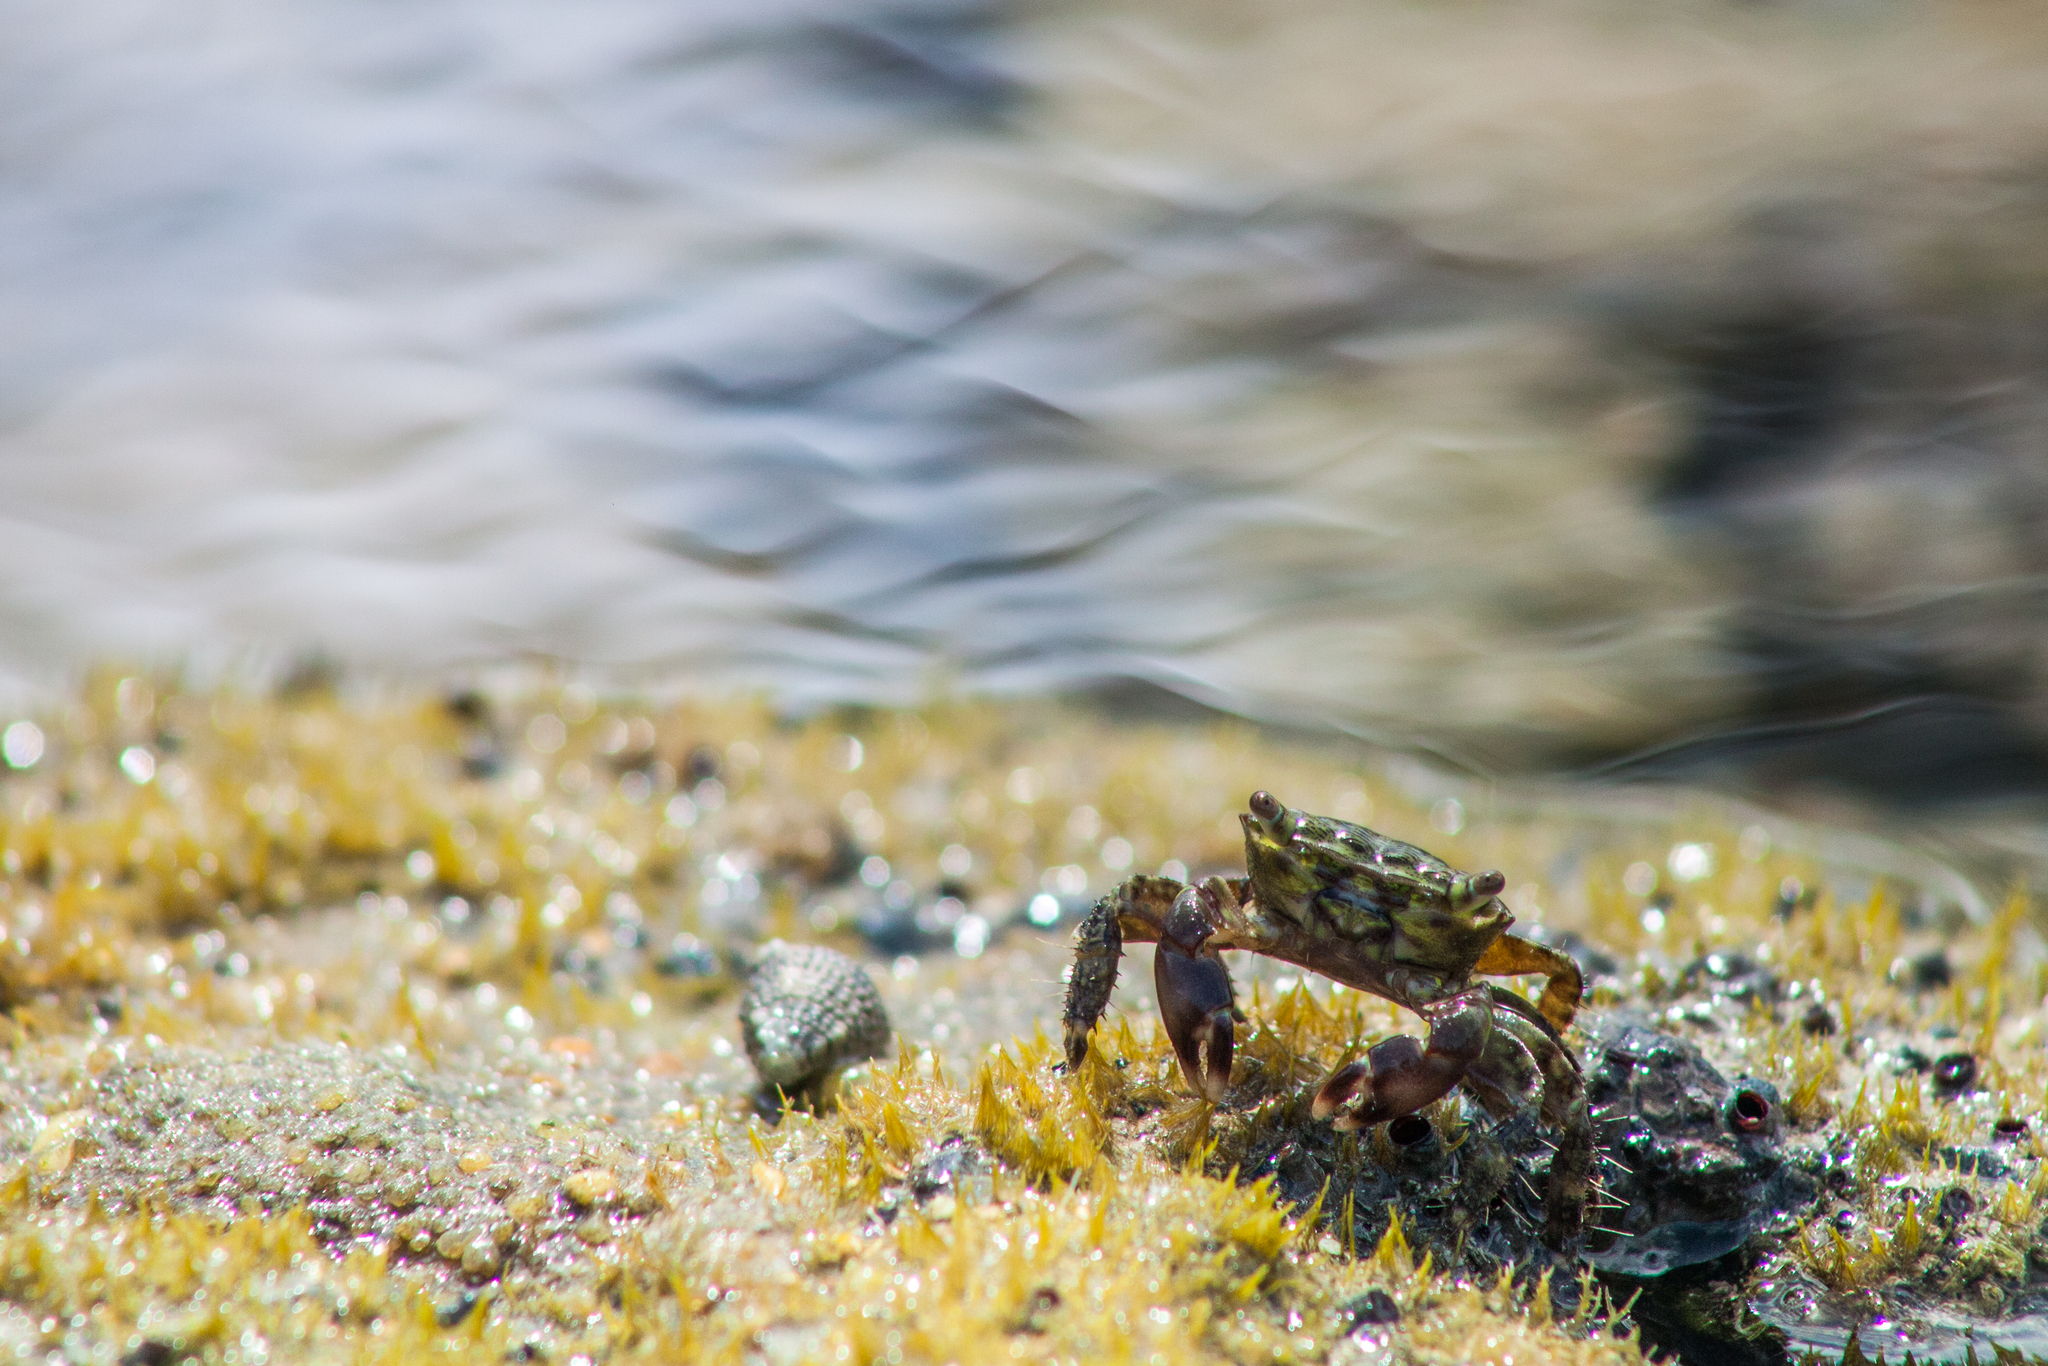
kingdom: Animalia
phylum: Arthropoda
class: Malacostraca
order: Decapoda
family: Grapsidae
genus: Pachygrapsus
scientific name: Pachygrapsus transversus
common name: Mottled shore crab
